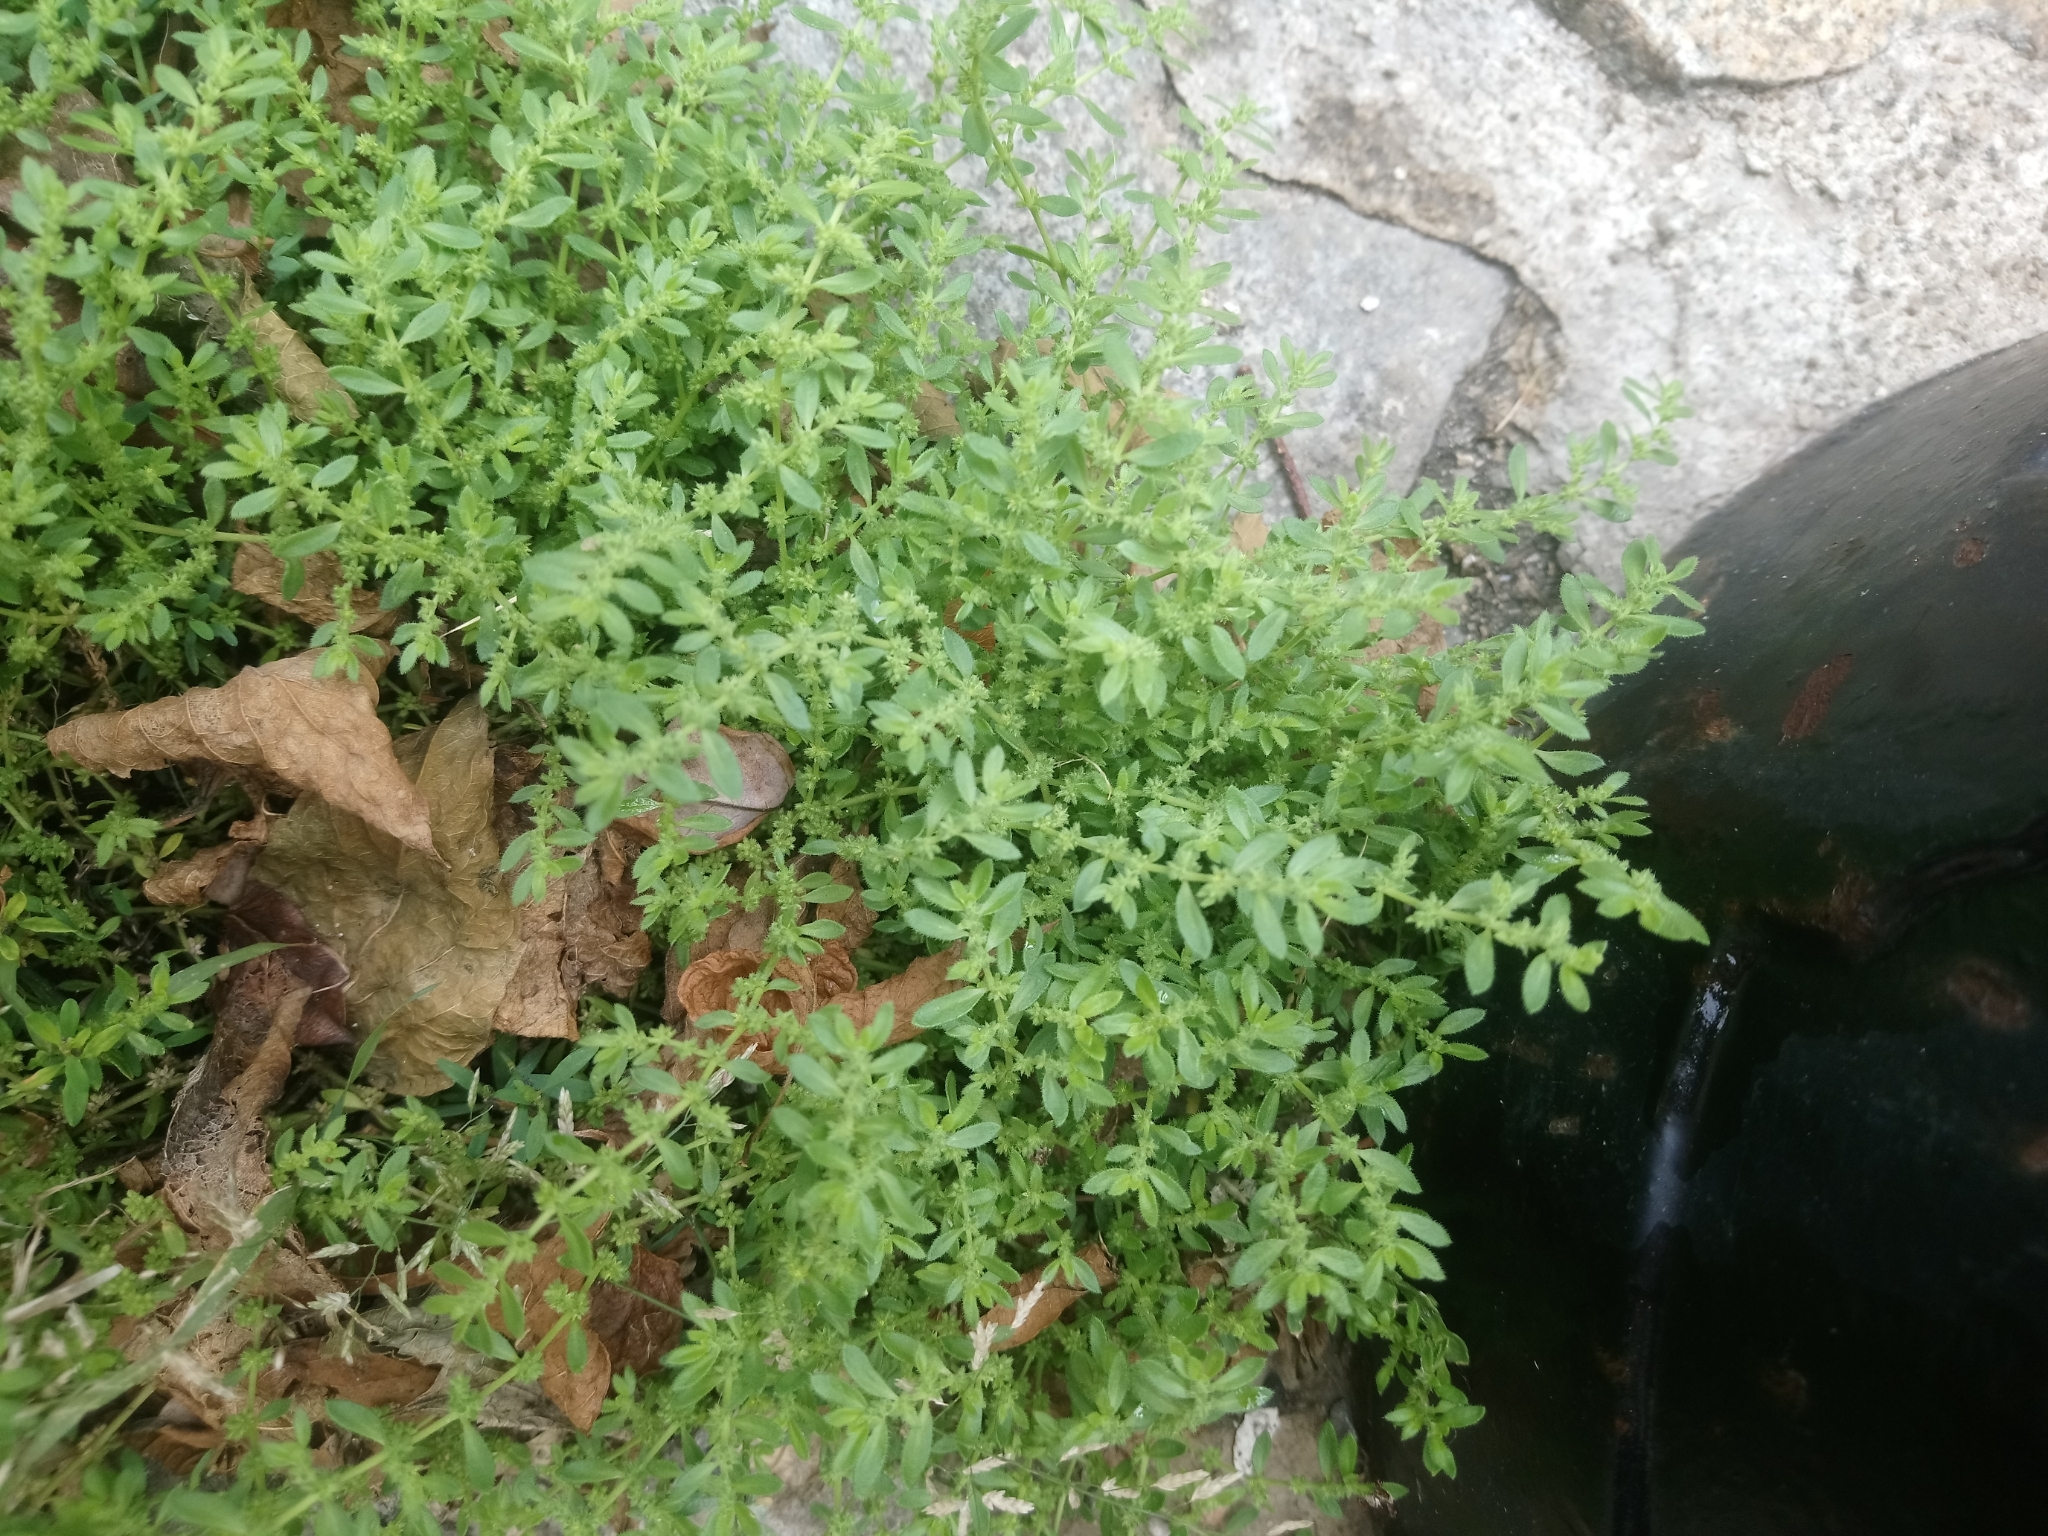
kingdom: Plantae
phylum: Tracheophyta
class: Magnoliopsida
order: Caryophyllales
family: Caryophyllaceae
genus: Herniaria
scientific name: Herniaria hirsuta
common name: Hairy rupturewort
